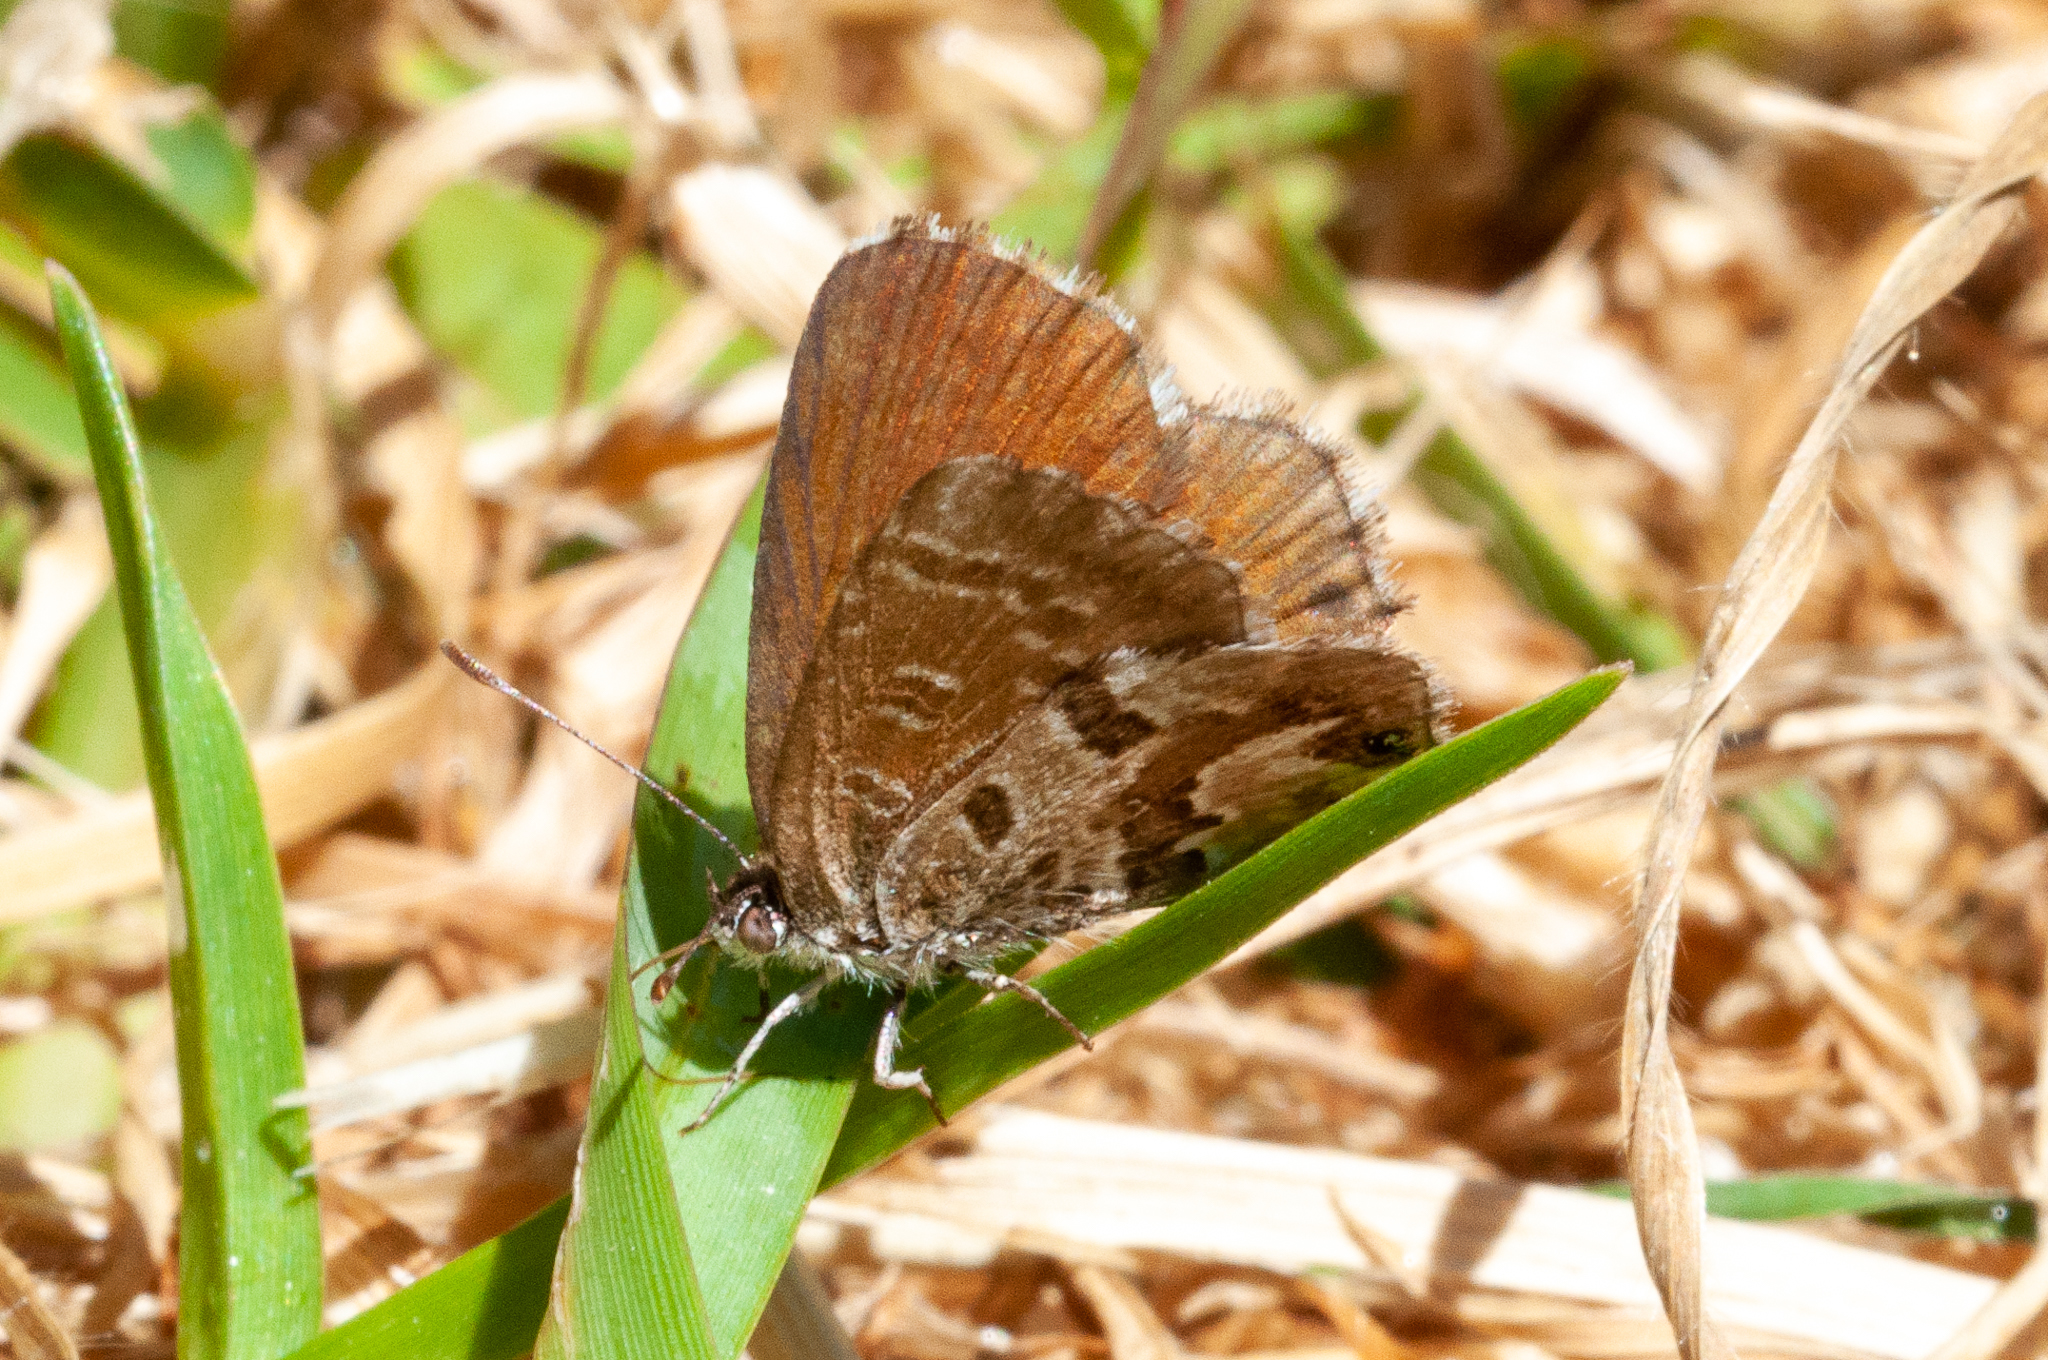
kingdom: Animalia
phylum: Arthropoda
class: Insecta
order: Lepidoptera
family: Lycaenidae
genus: Cacyreus
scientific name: Cacyreus marshalli
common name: Geranium bronze
